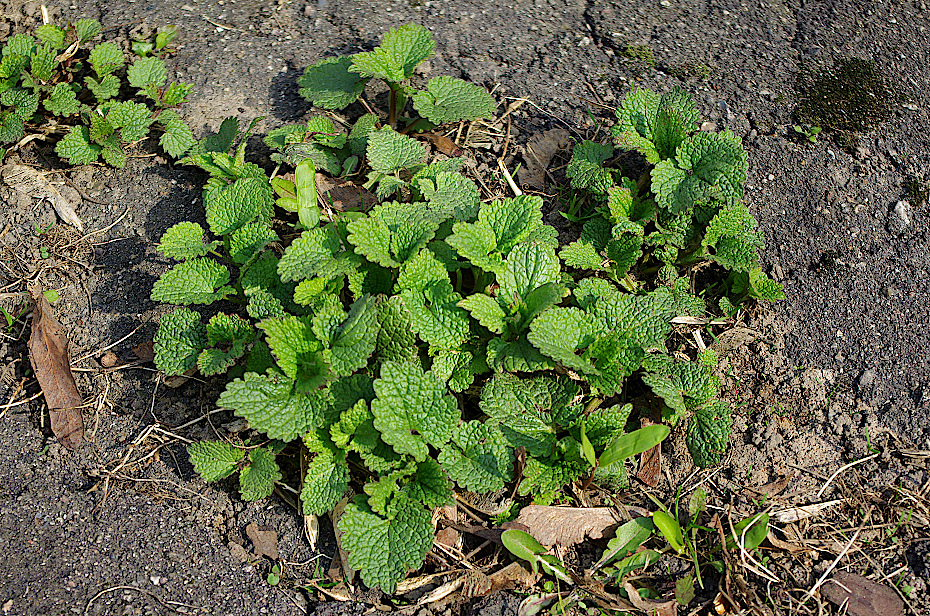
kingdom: Plantae
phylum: Tracheophyta
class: Magnoliopsida
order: Lamiales
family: Lamiaceae
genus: Lamium
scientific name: Lamium album
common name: White dead-nettle
